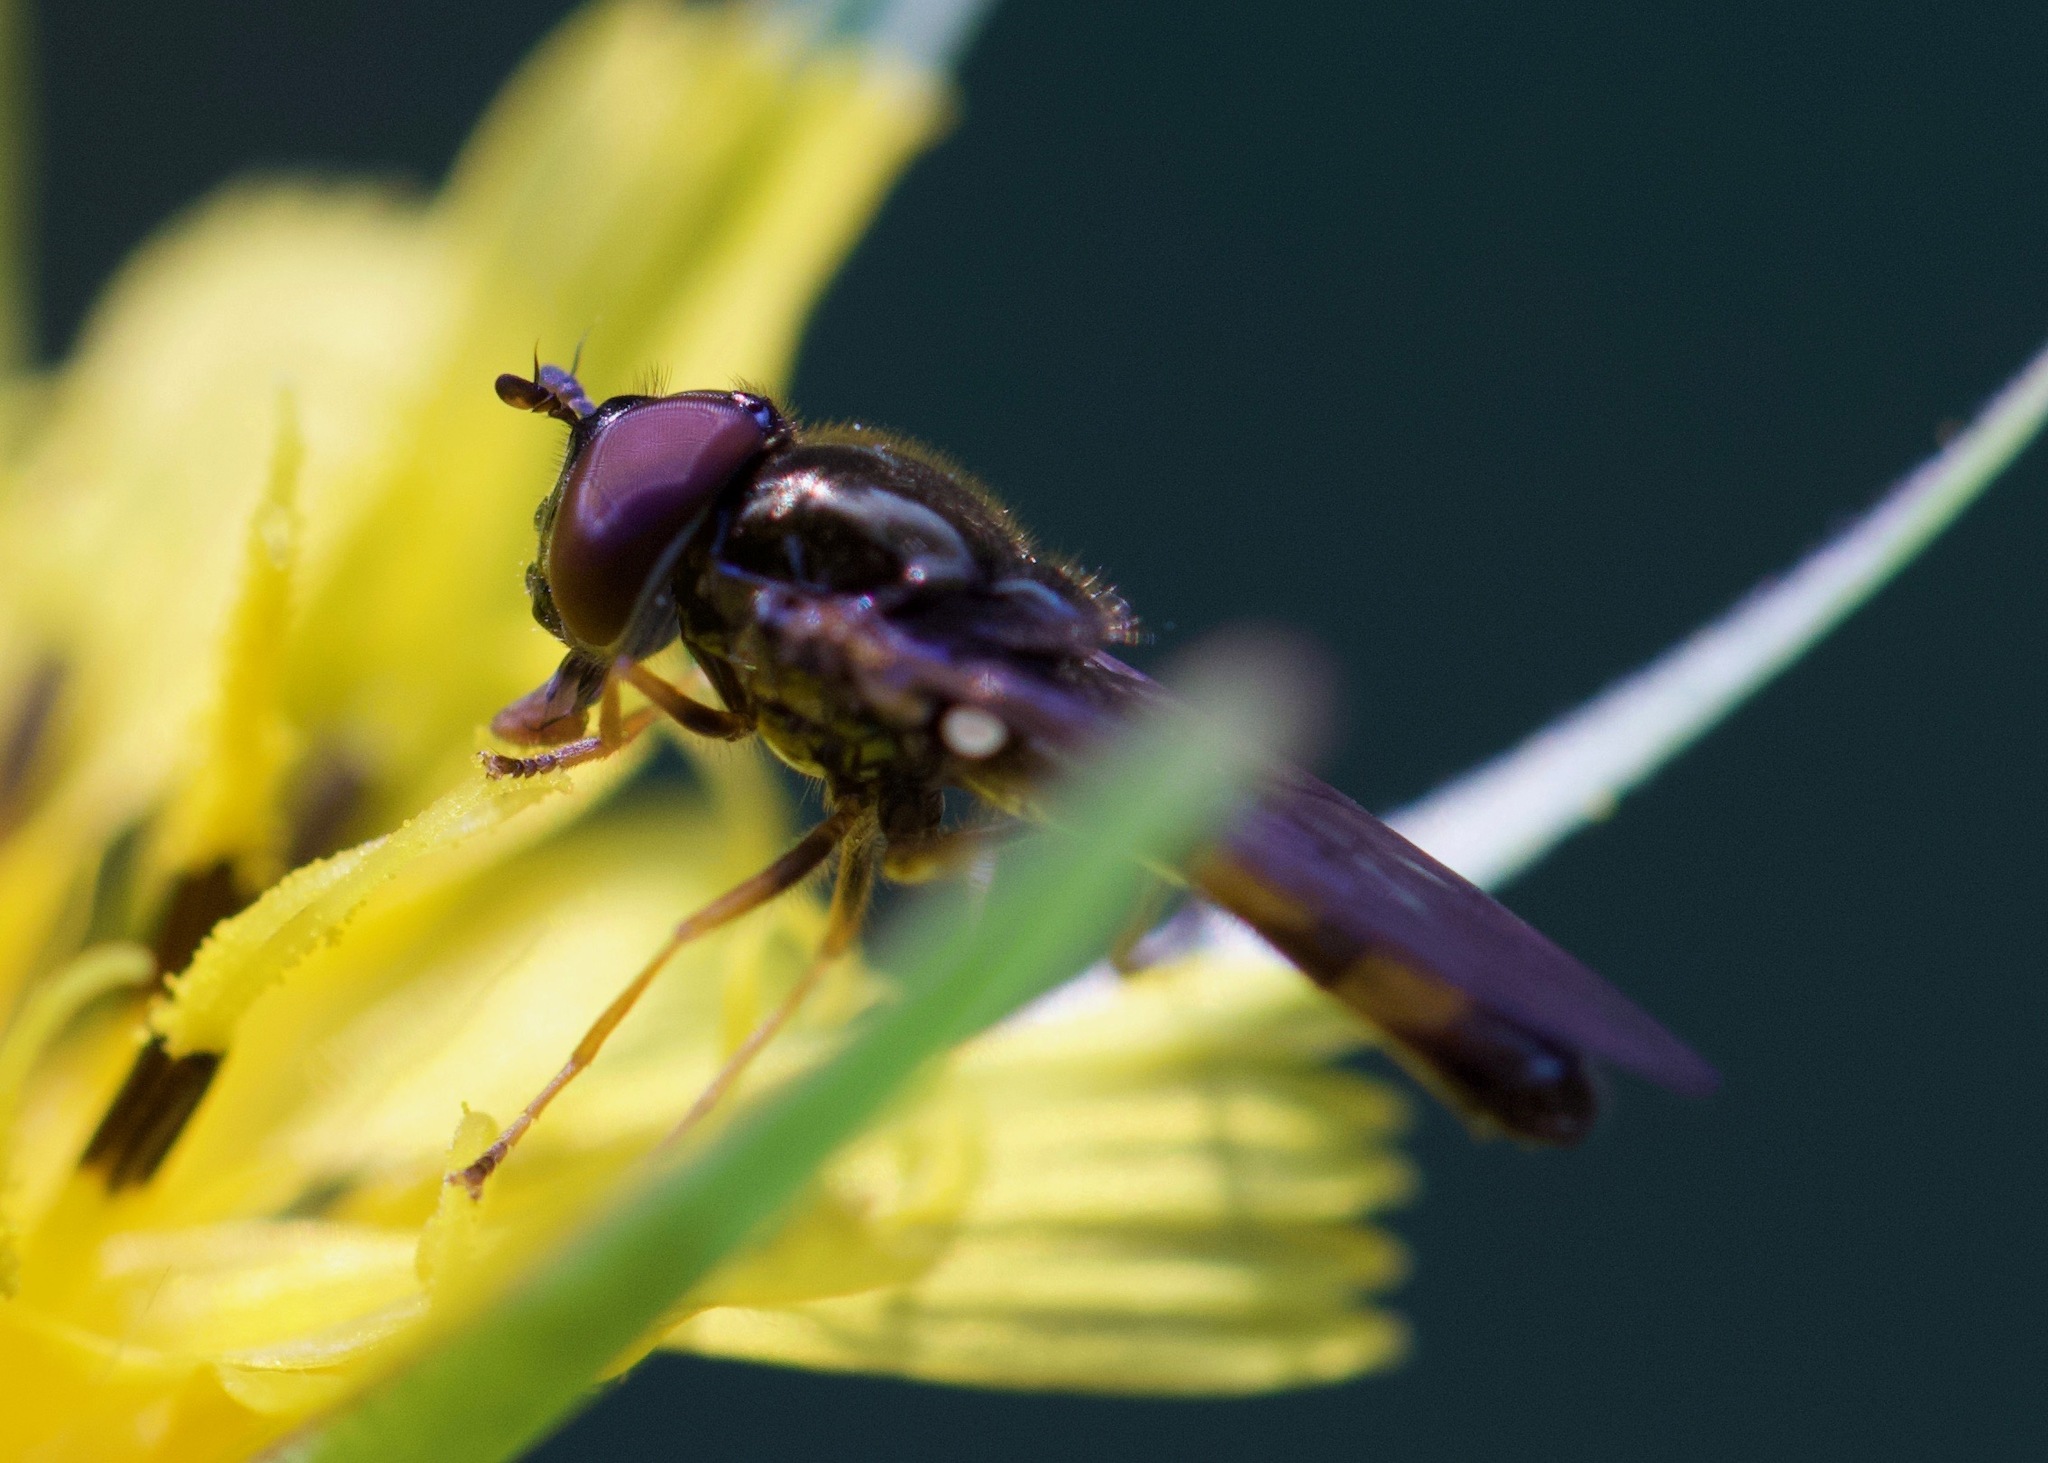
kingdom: Animalia
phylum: Arthropoda
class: Insecta
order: Diptera
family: Syrphidae
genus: Melanostoma
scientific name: Melanostoma mellina
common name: Hover fly
